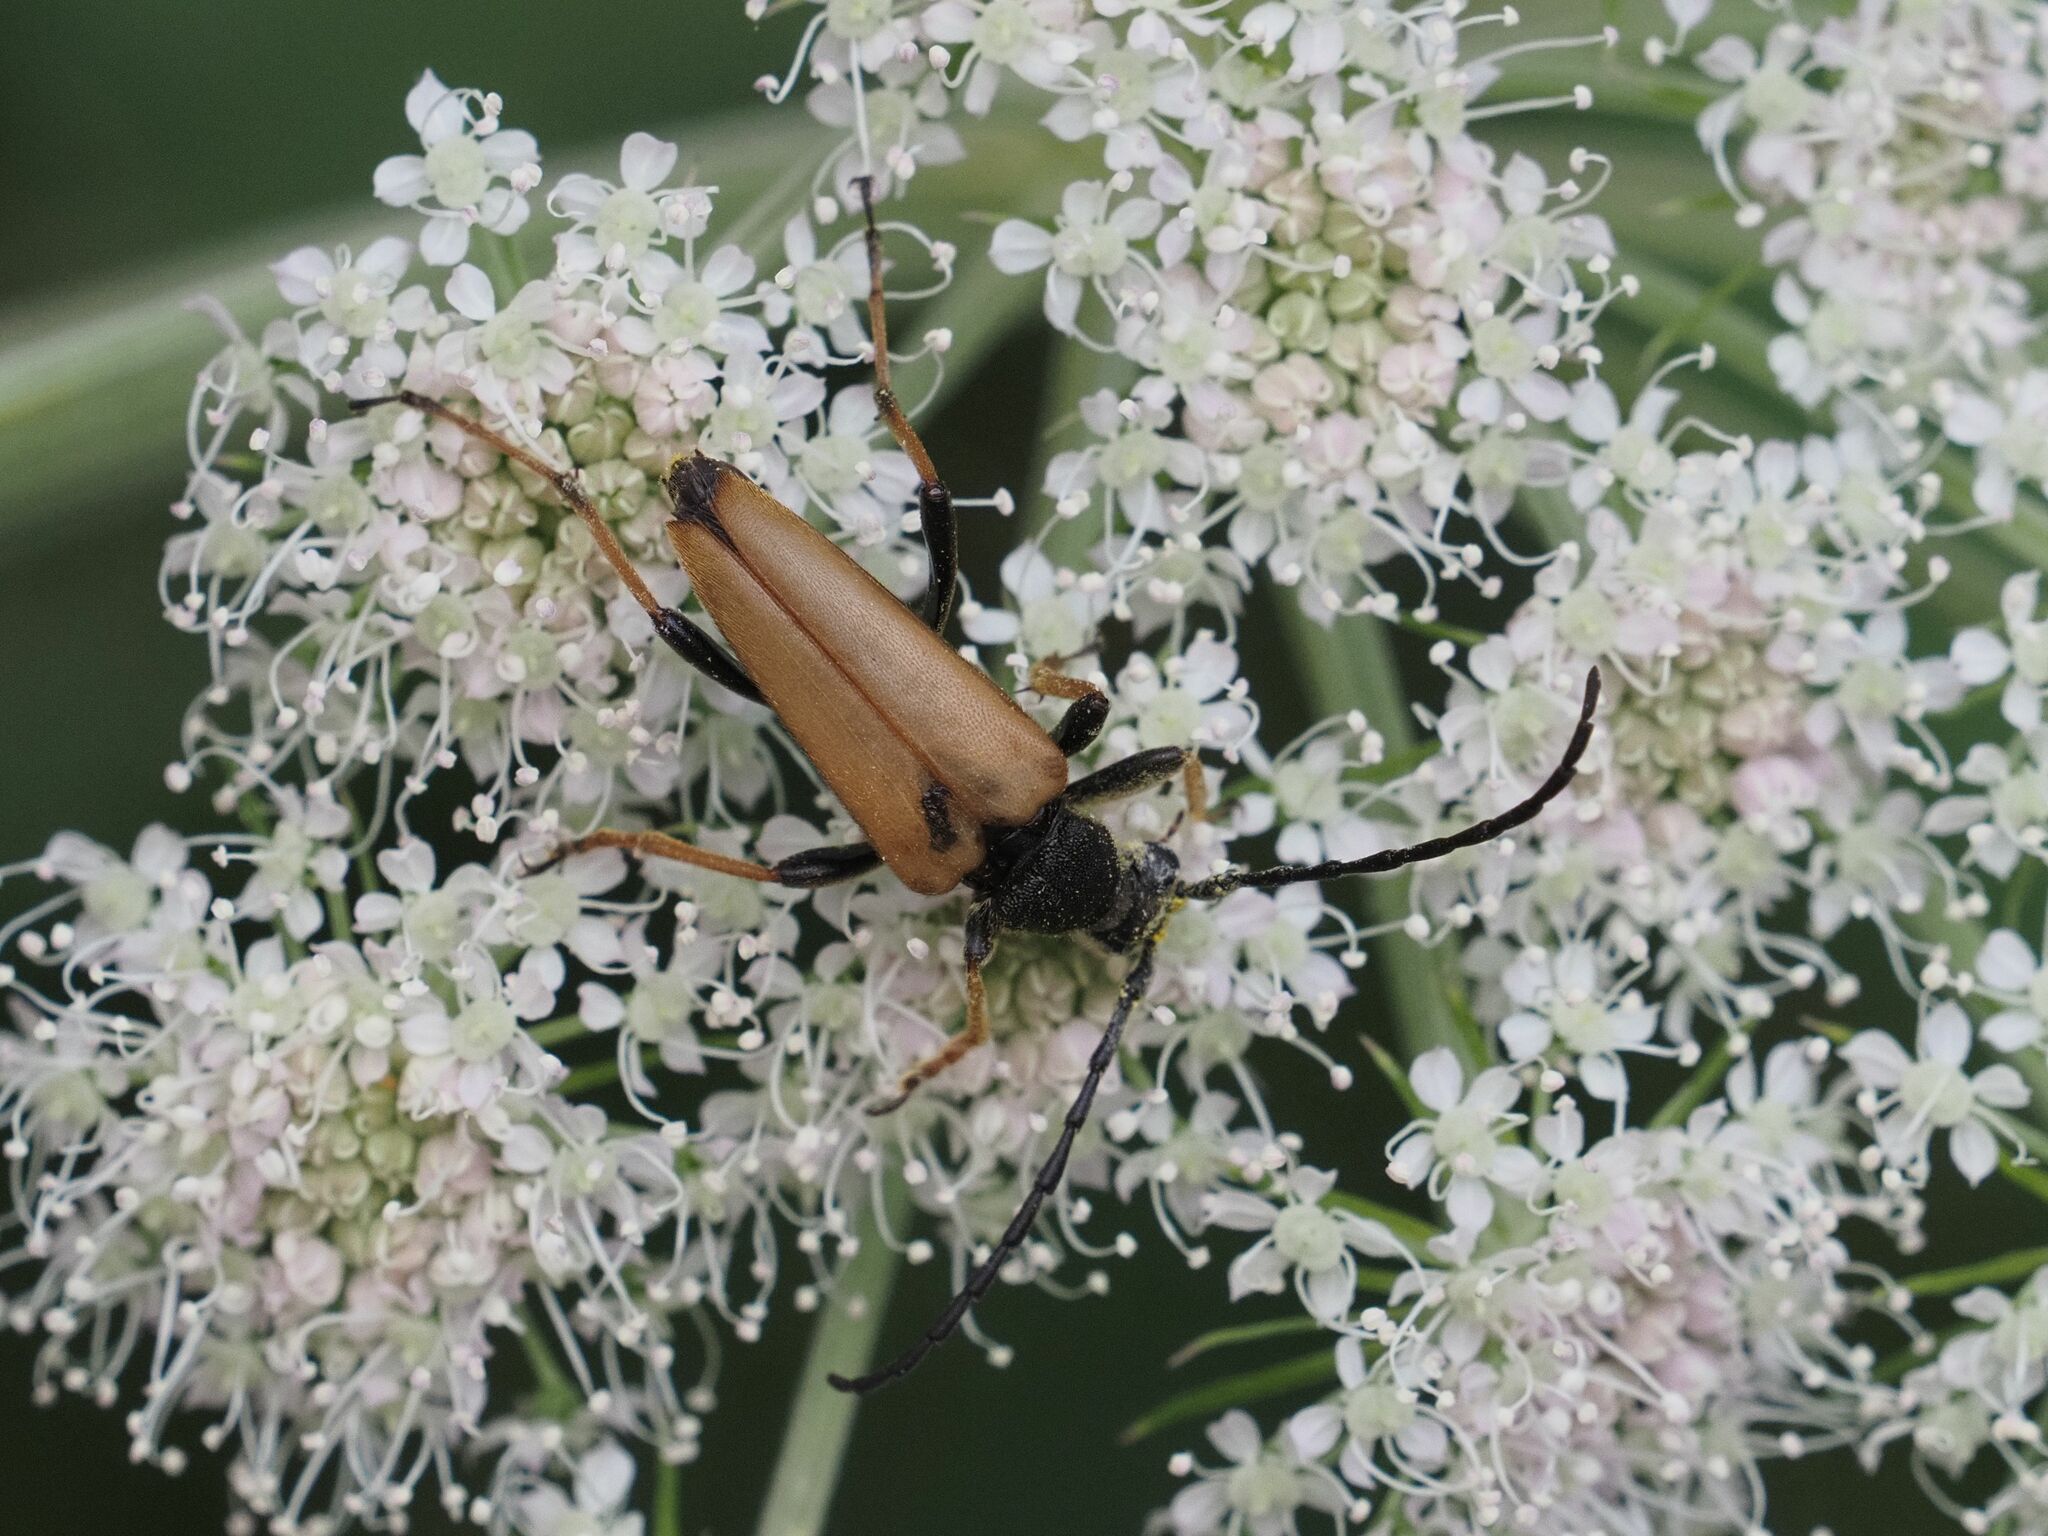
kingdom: Animalia
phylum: Arthropoda
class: Insecta
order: Coleoptera
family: Cerambycidae
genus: Stictoleptura
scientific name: Stictoleptura rubra
